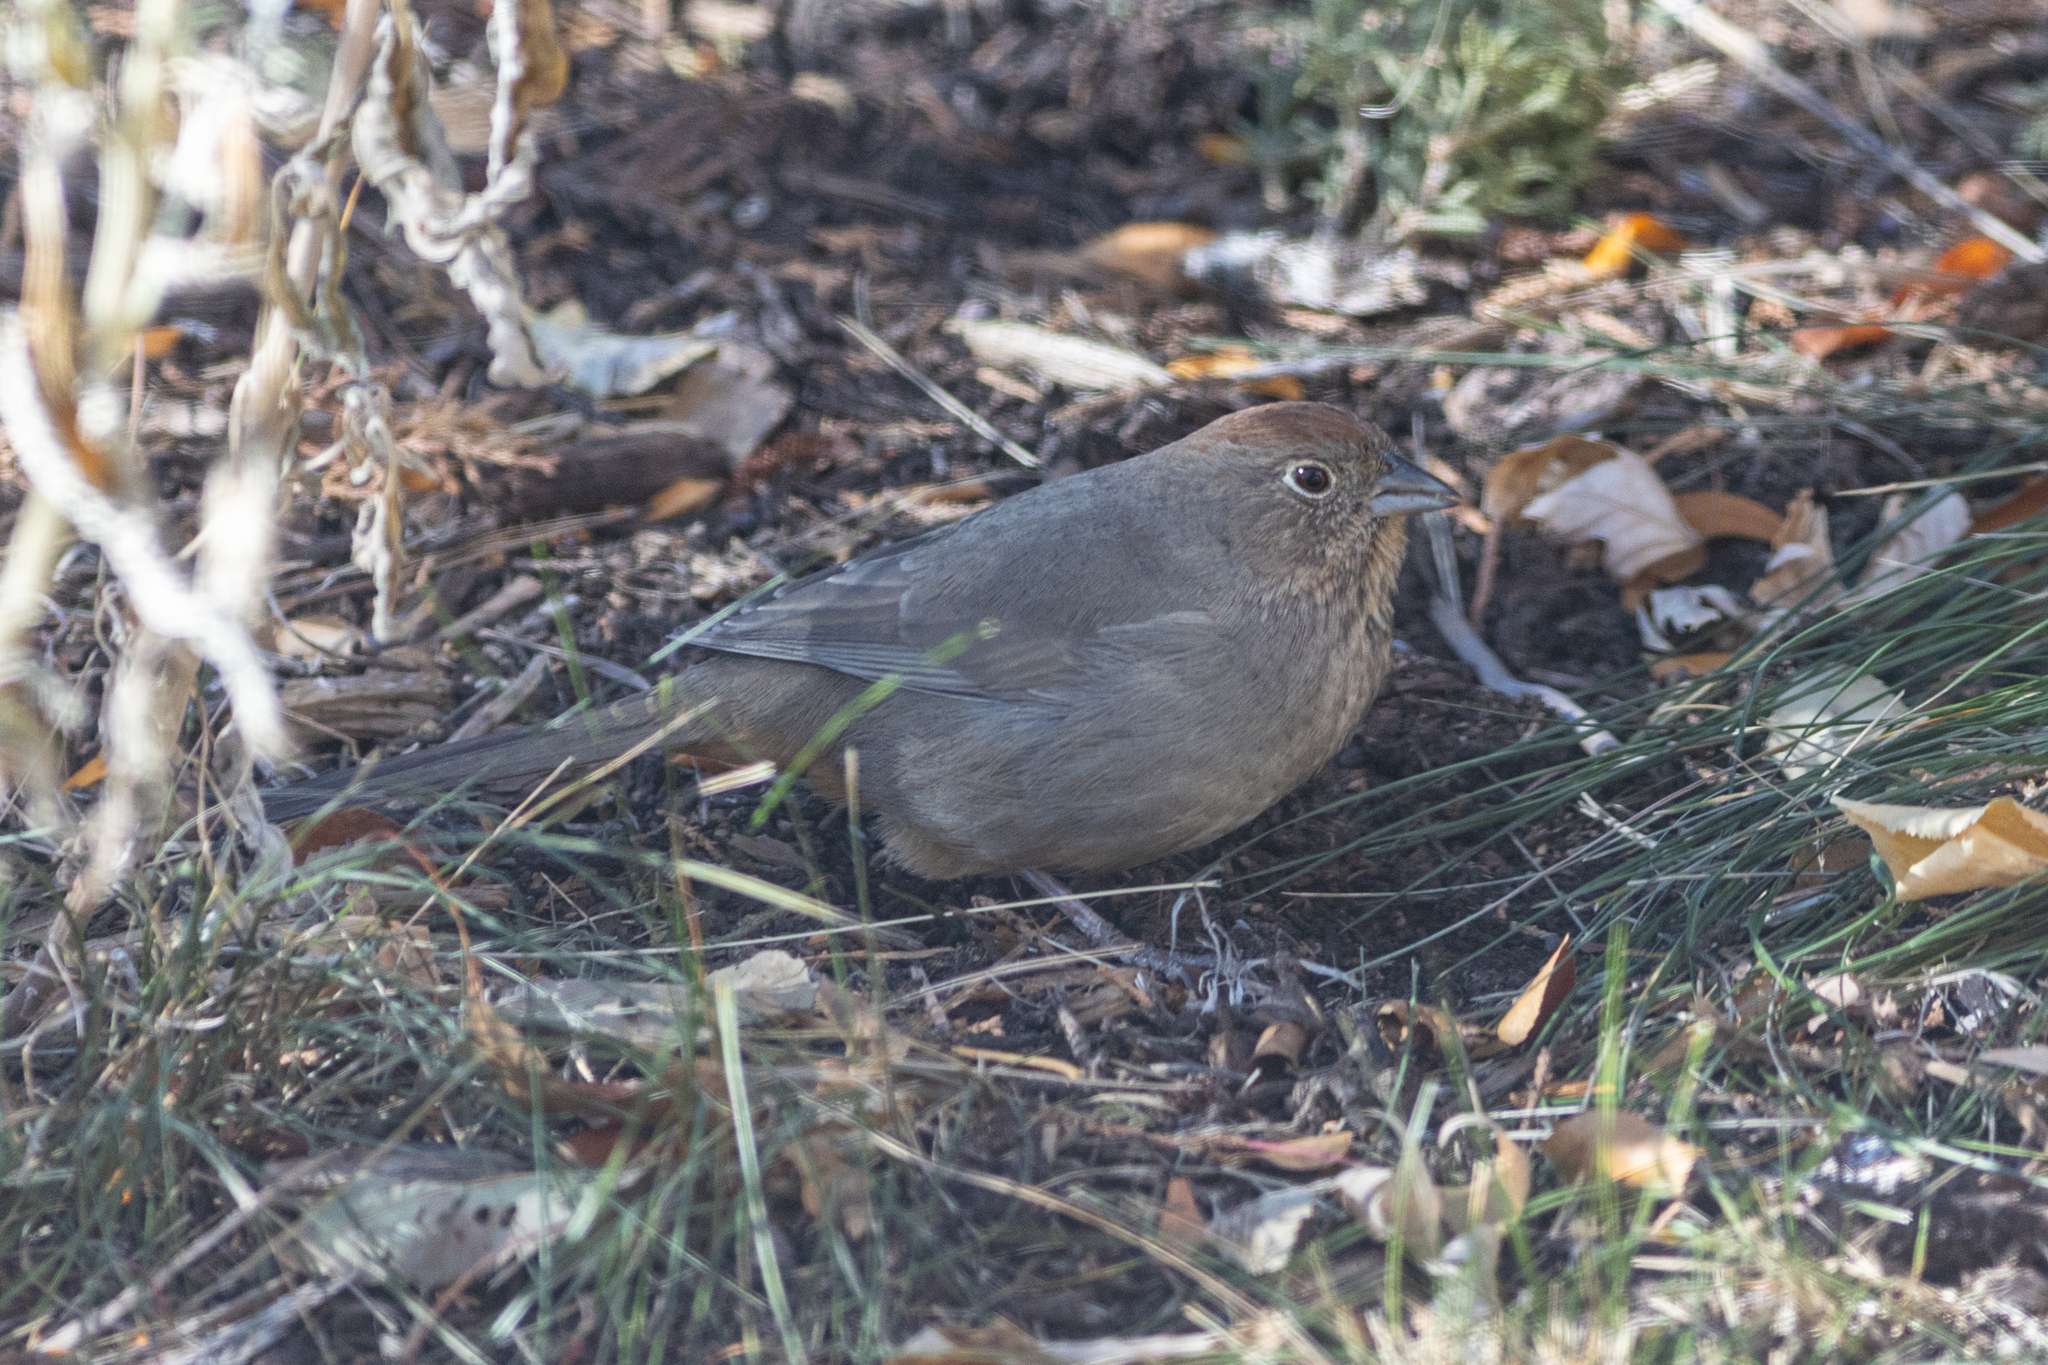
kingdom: Animalia
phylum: Chordata
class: Aves
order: Passeriformes
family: Passerellidae
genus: Melozone
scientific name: Melozone fusca
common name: Canyon towhee
